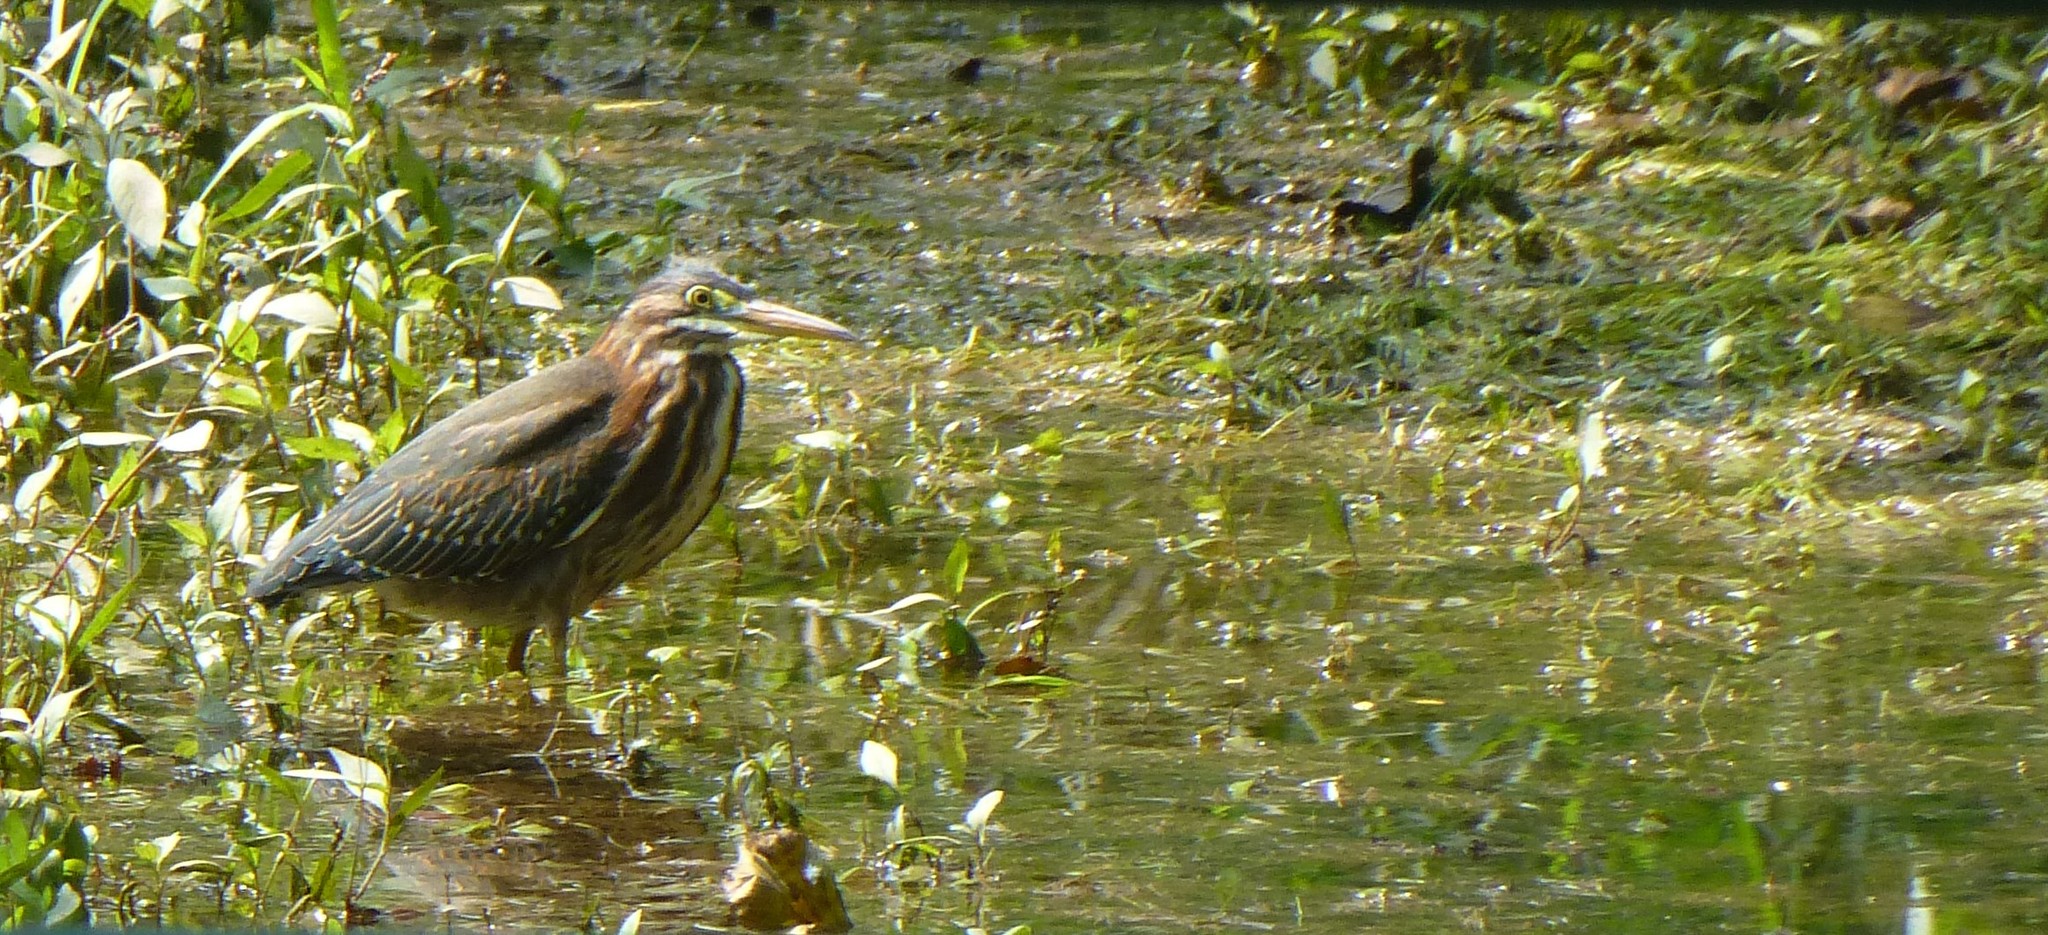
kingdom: Animalia
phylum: Chordata
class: Aves
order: Pelecaniformes
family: Ardeidae
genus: Butorides
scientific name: Butorides virescens
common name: Green heron
